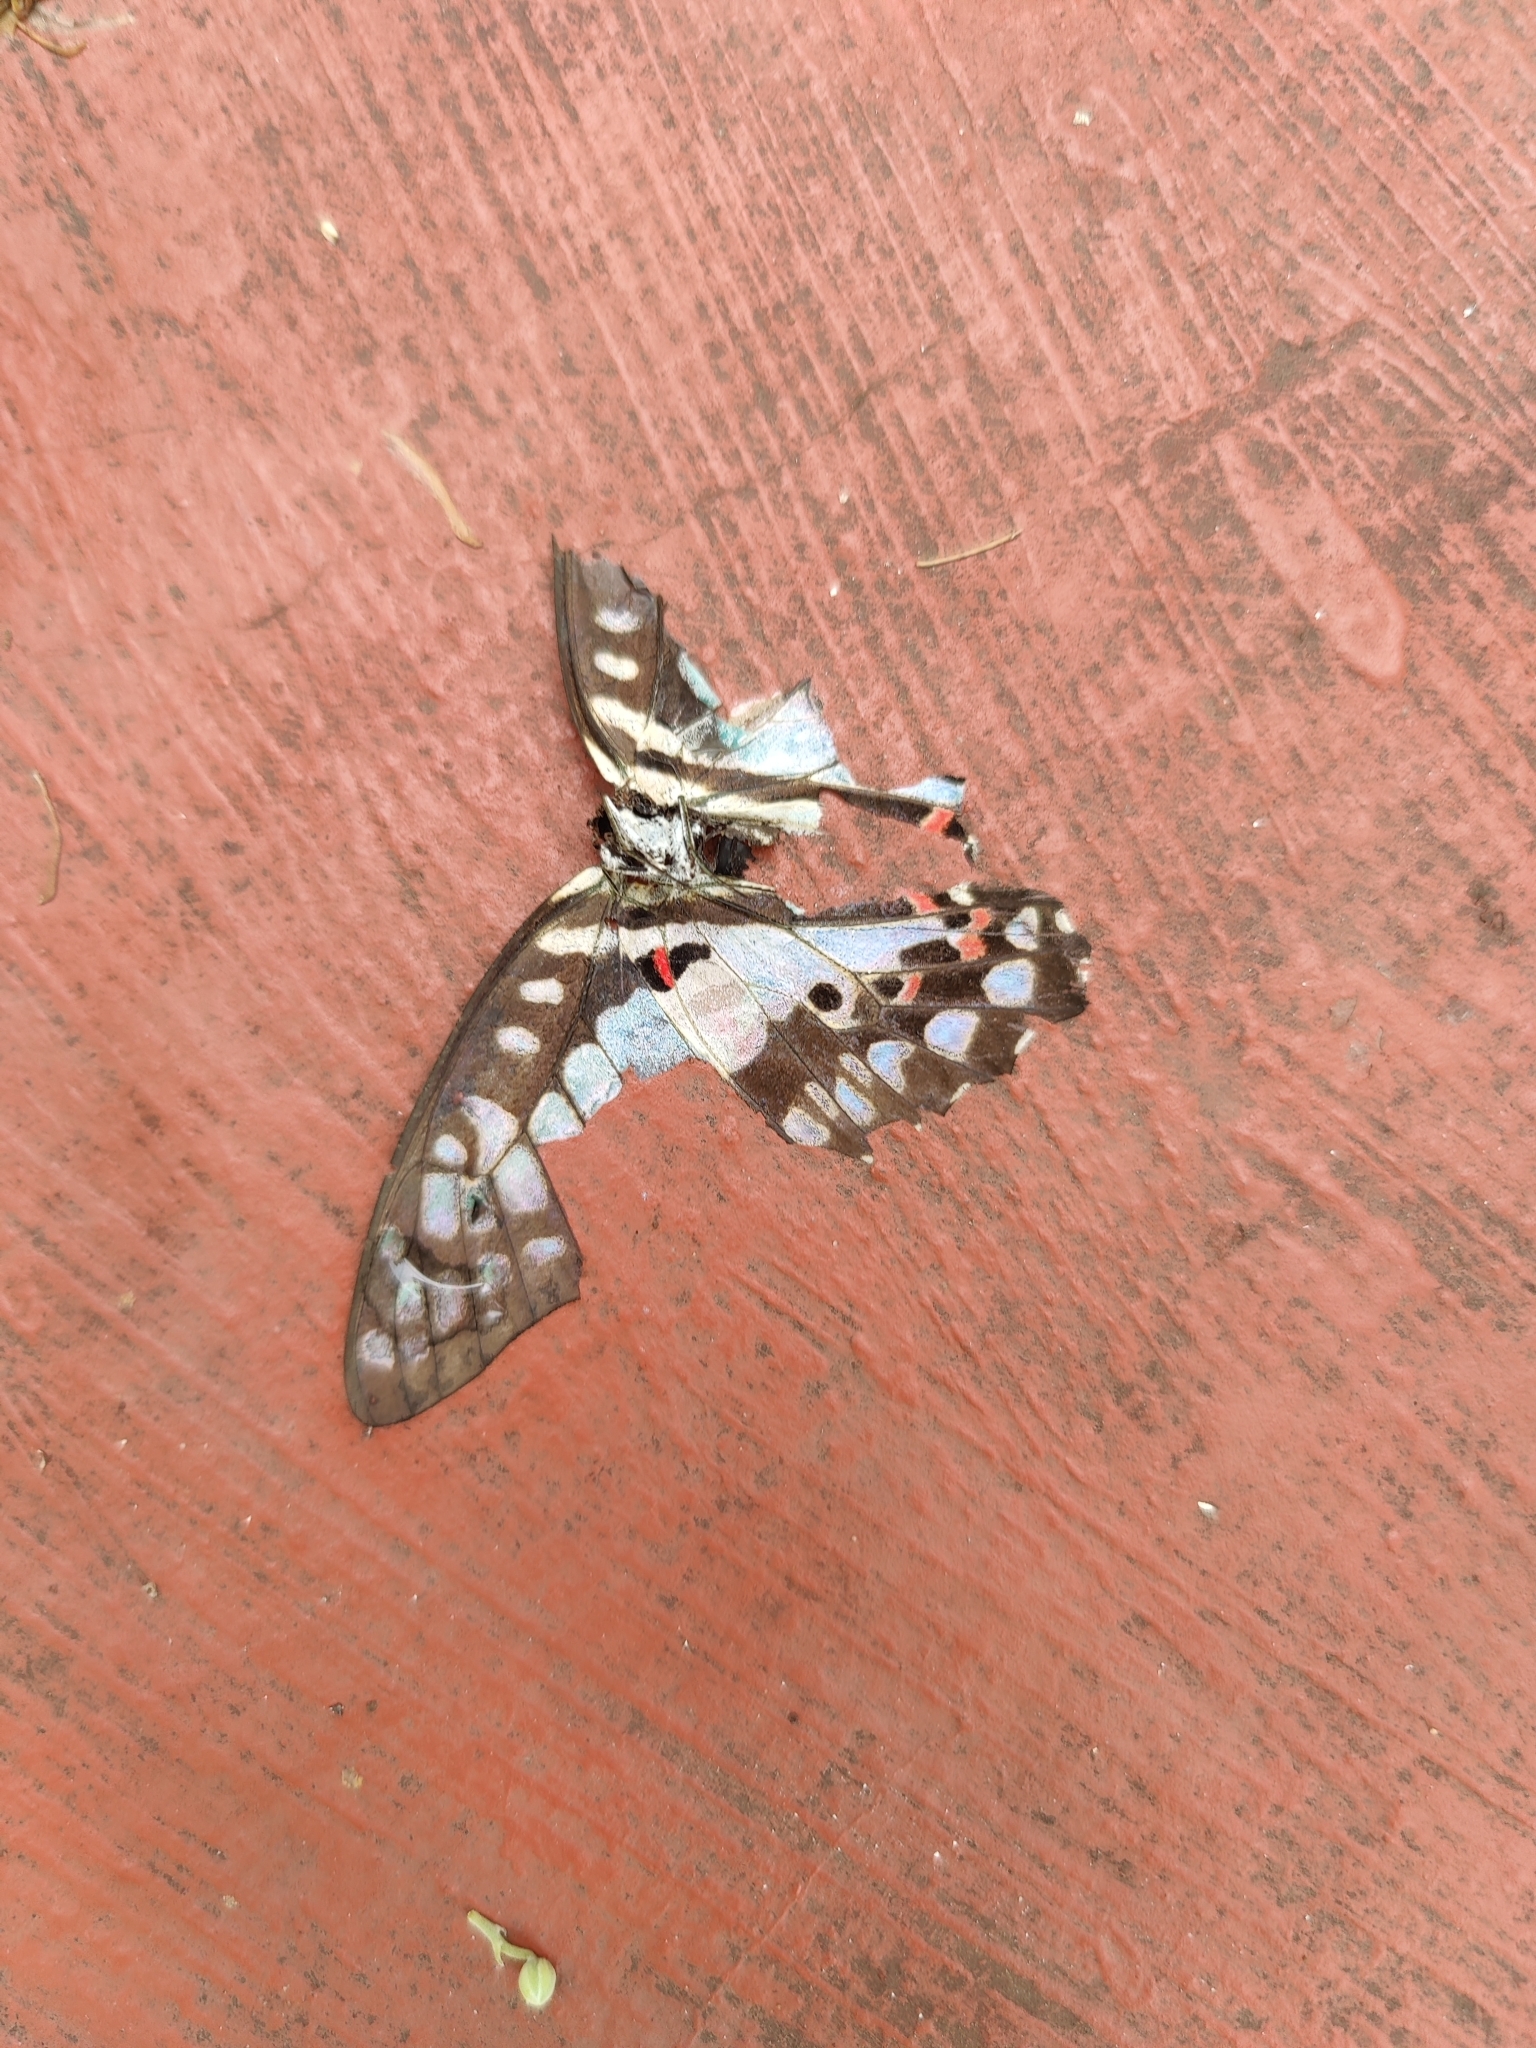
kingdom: Animalia
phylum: Arthropoda
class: Insecta
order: Lepidoptera
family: Papilionidae
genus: Graphium
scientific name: Graphium doson
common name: Common jay
